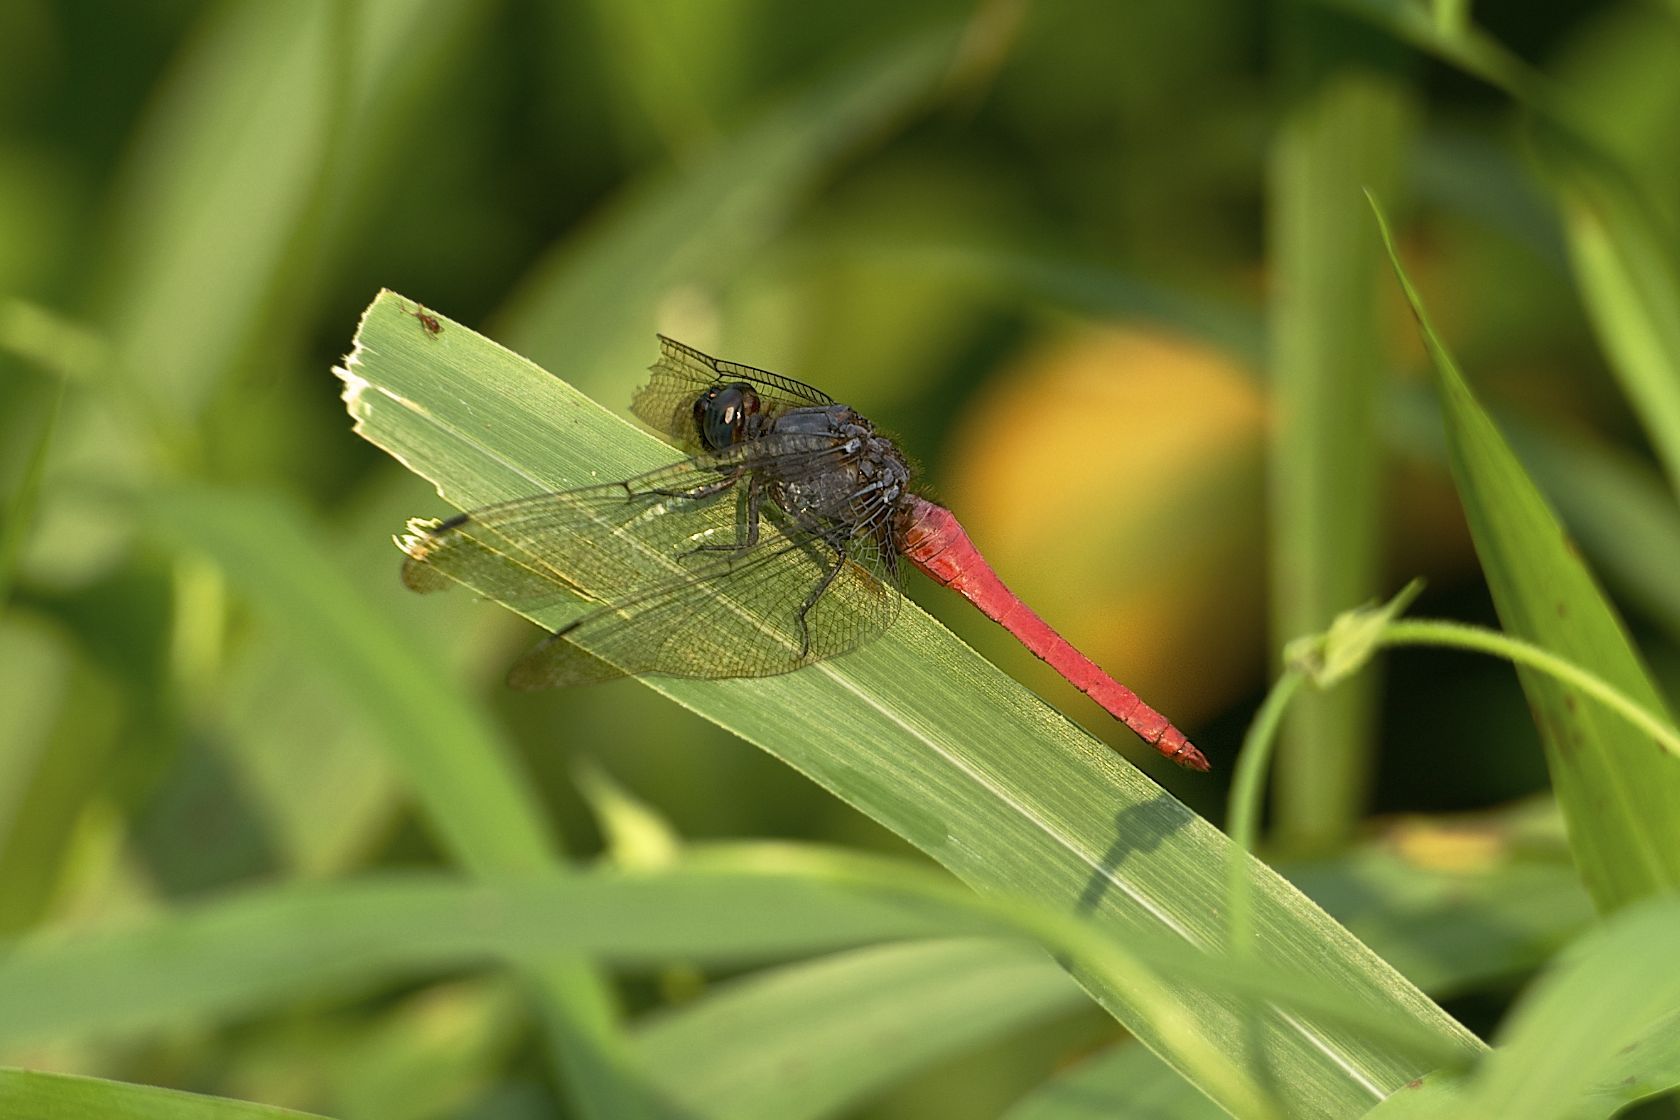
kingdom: Animalia
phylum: Arthropoda
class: Insecta
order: Odonata
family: Libellulidae
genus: Orthetrum
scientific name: Orthetrum pruinosum
